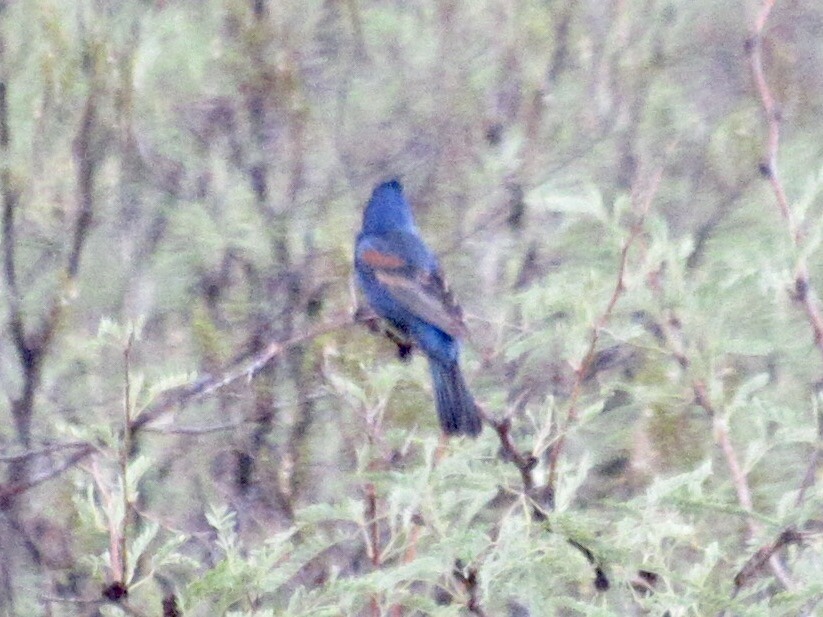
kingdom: Animalia
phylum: Chordata
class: Aves
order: Passeriformes
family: Cardinalidae
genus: Passerina
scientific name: Passerina caerulea
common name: Blue grosbeak
